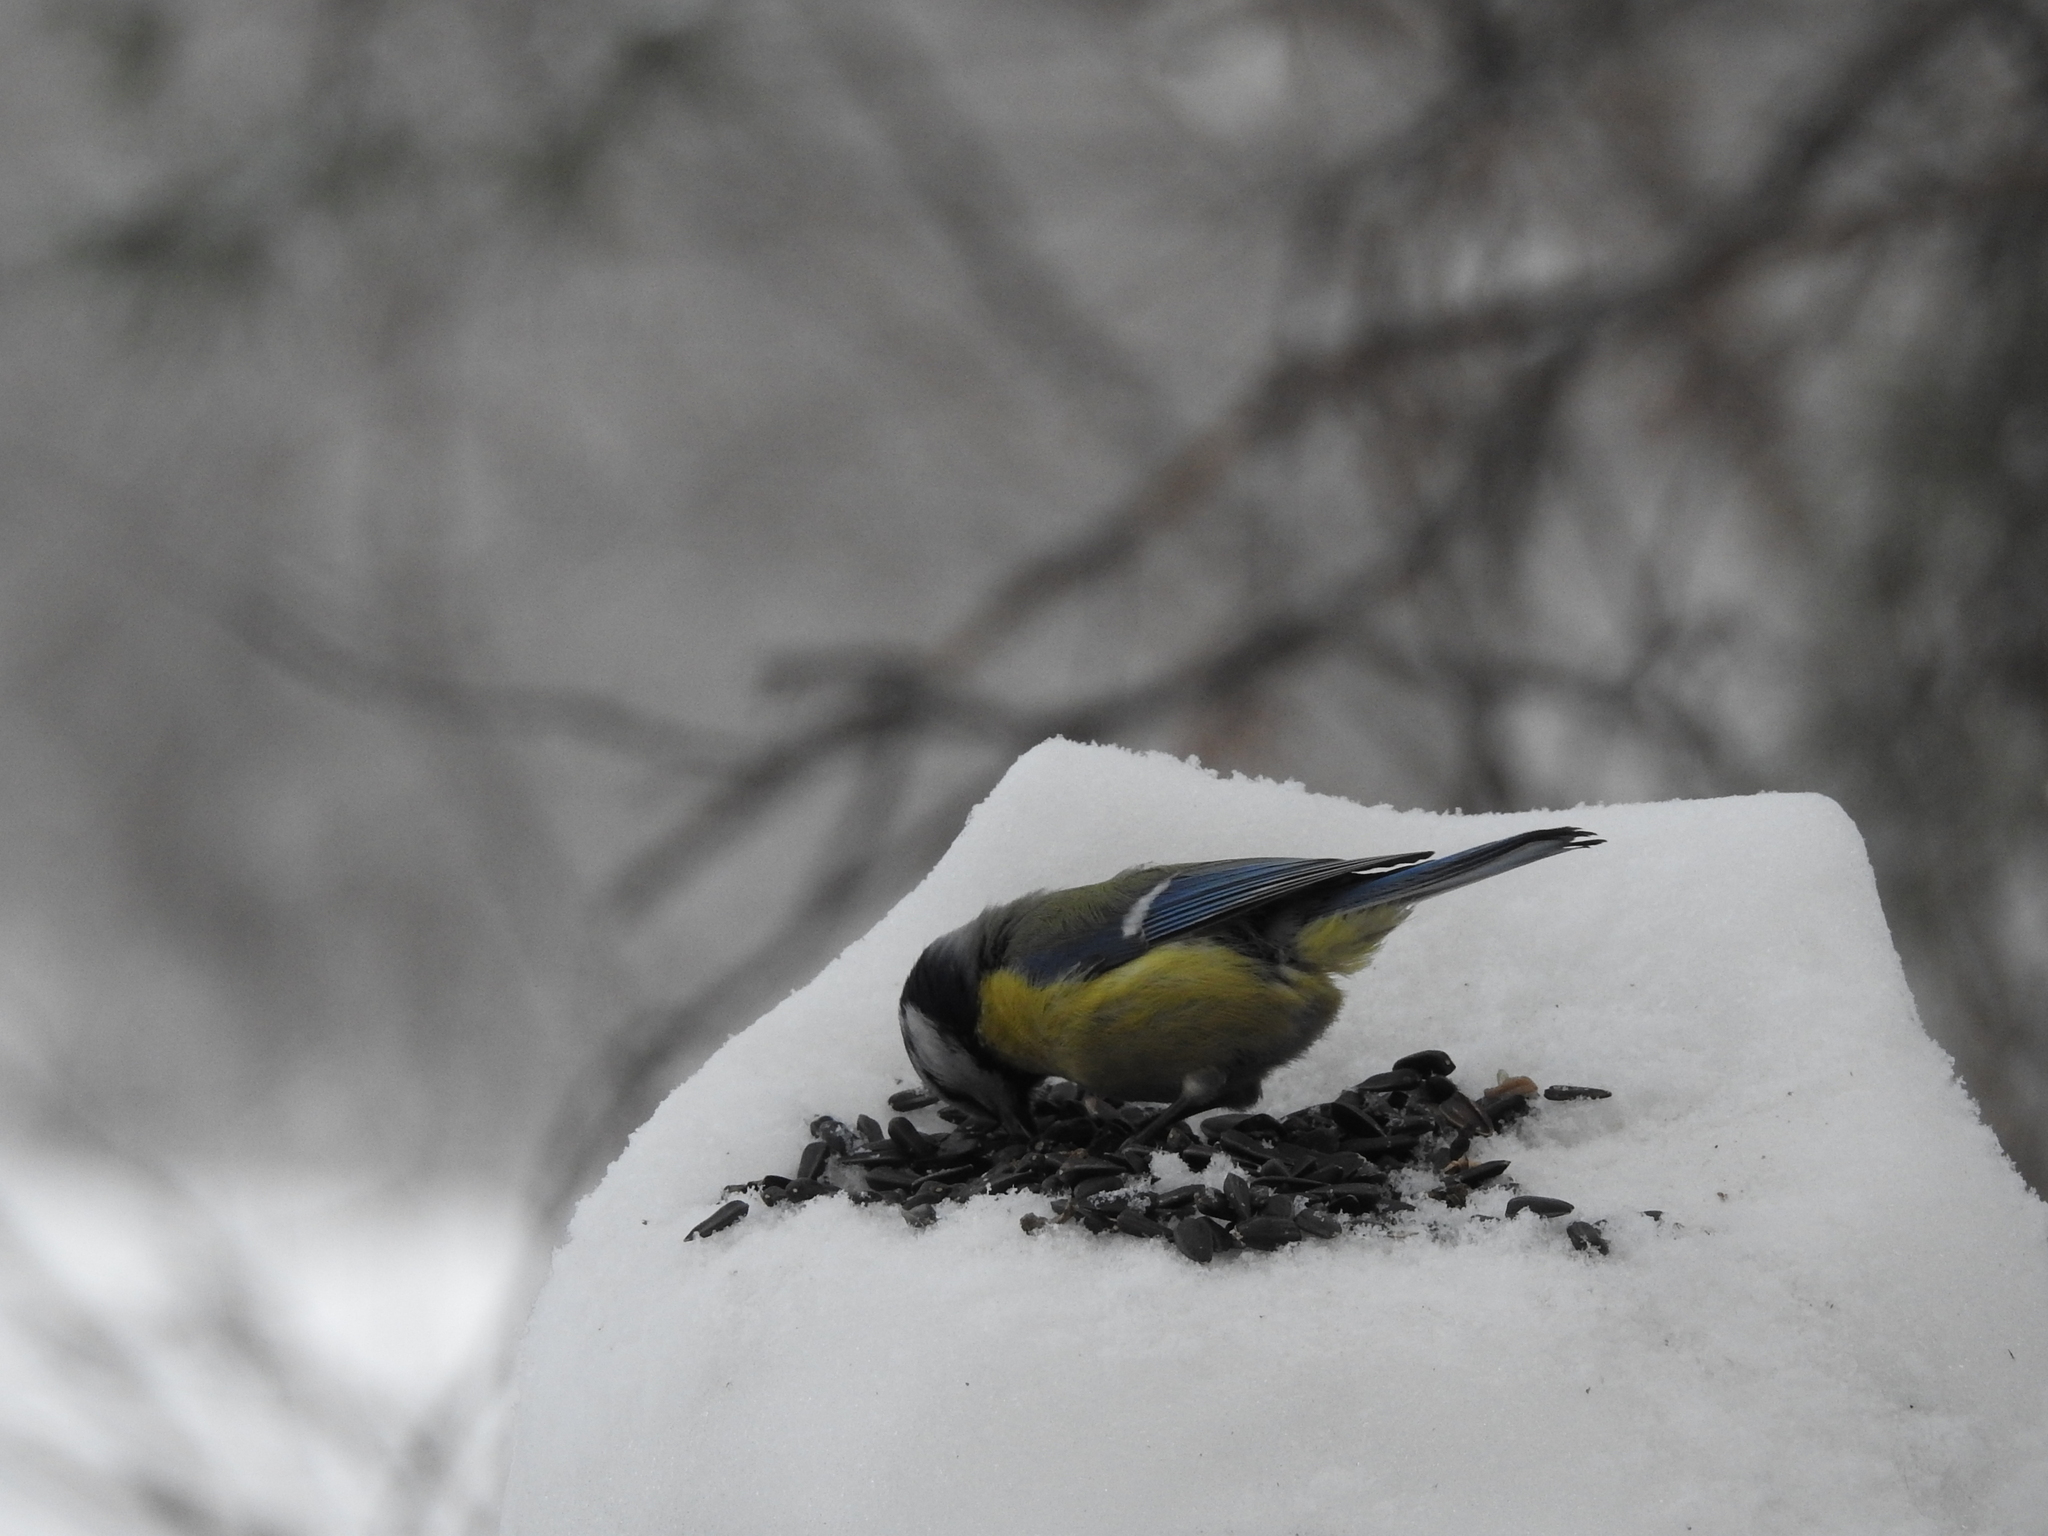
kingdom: Animalia
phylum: Chordata
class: Aves
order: Passeriformes
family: Paridae
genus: Cyanistes
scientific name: Cyanistes caeruleus
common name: Eurasian blue tit
